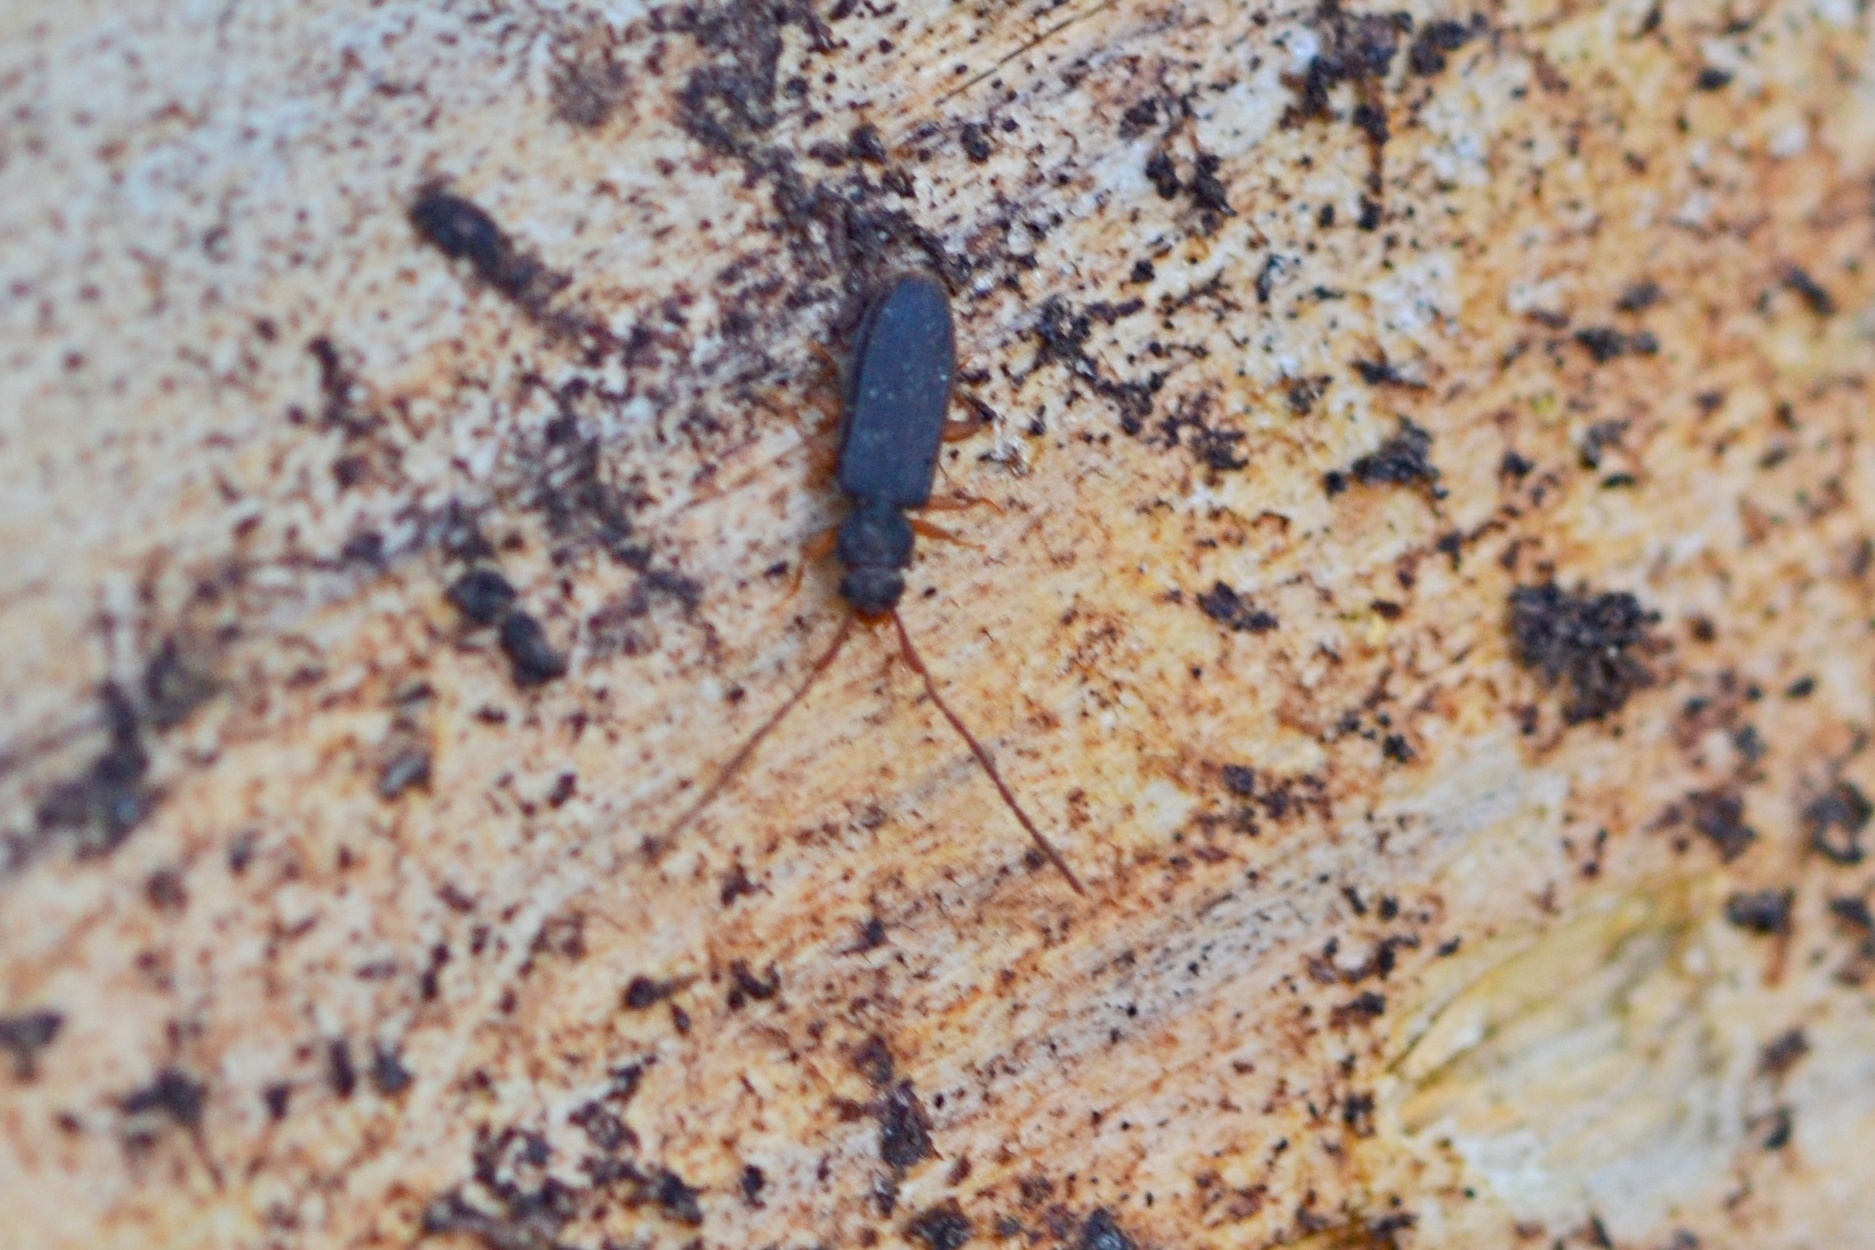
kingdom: Animalia
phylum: Arthropoda
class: Insecta
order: Coleoptera
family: Silvanidae
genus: Uleiota
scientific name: Uleiota planatus
